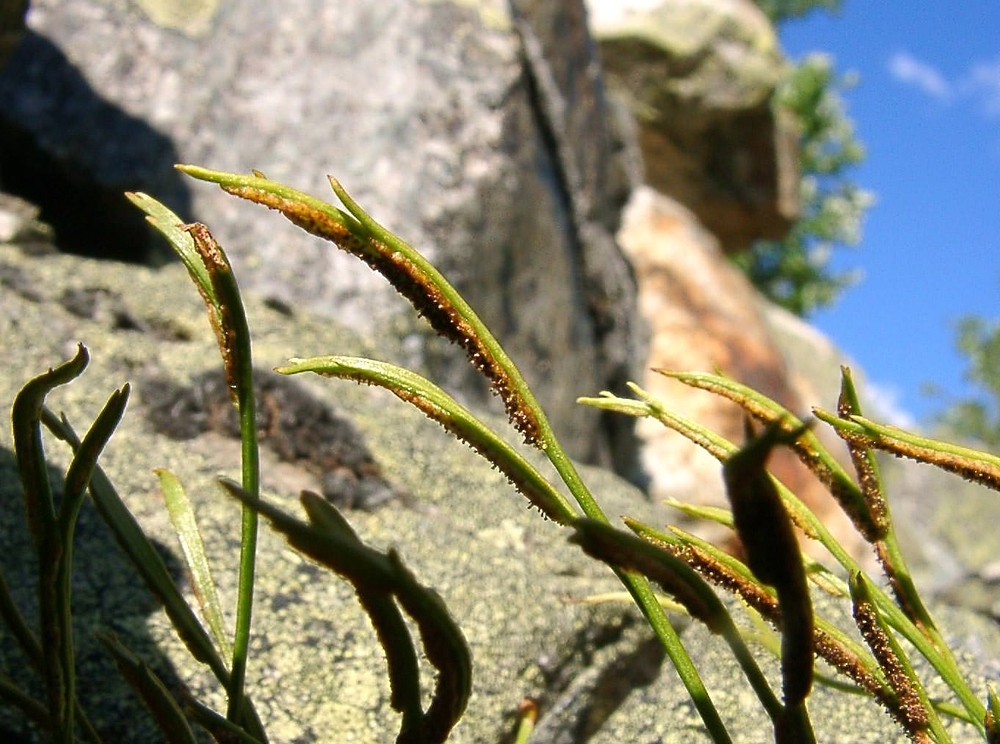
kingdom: Plantae
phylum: Tracheophyta
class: Polypodiopsida
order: Polypodiales
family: Aspleniaceae
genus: Asplenium
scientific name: Asplenium septentrionale
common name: Forked spleenwort
